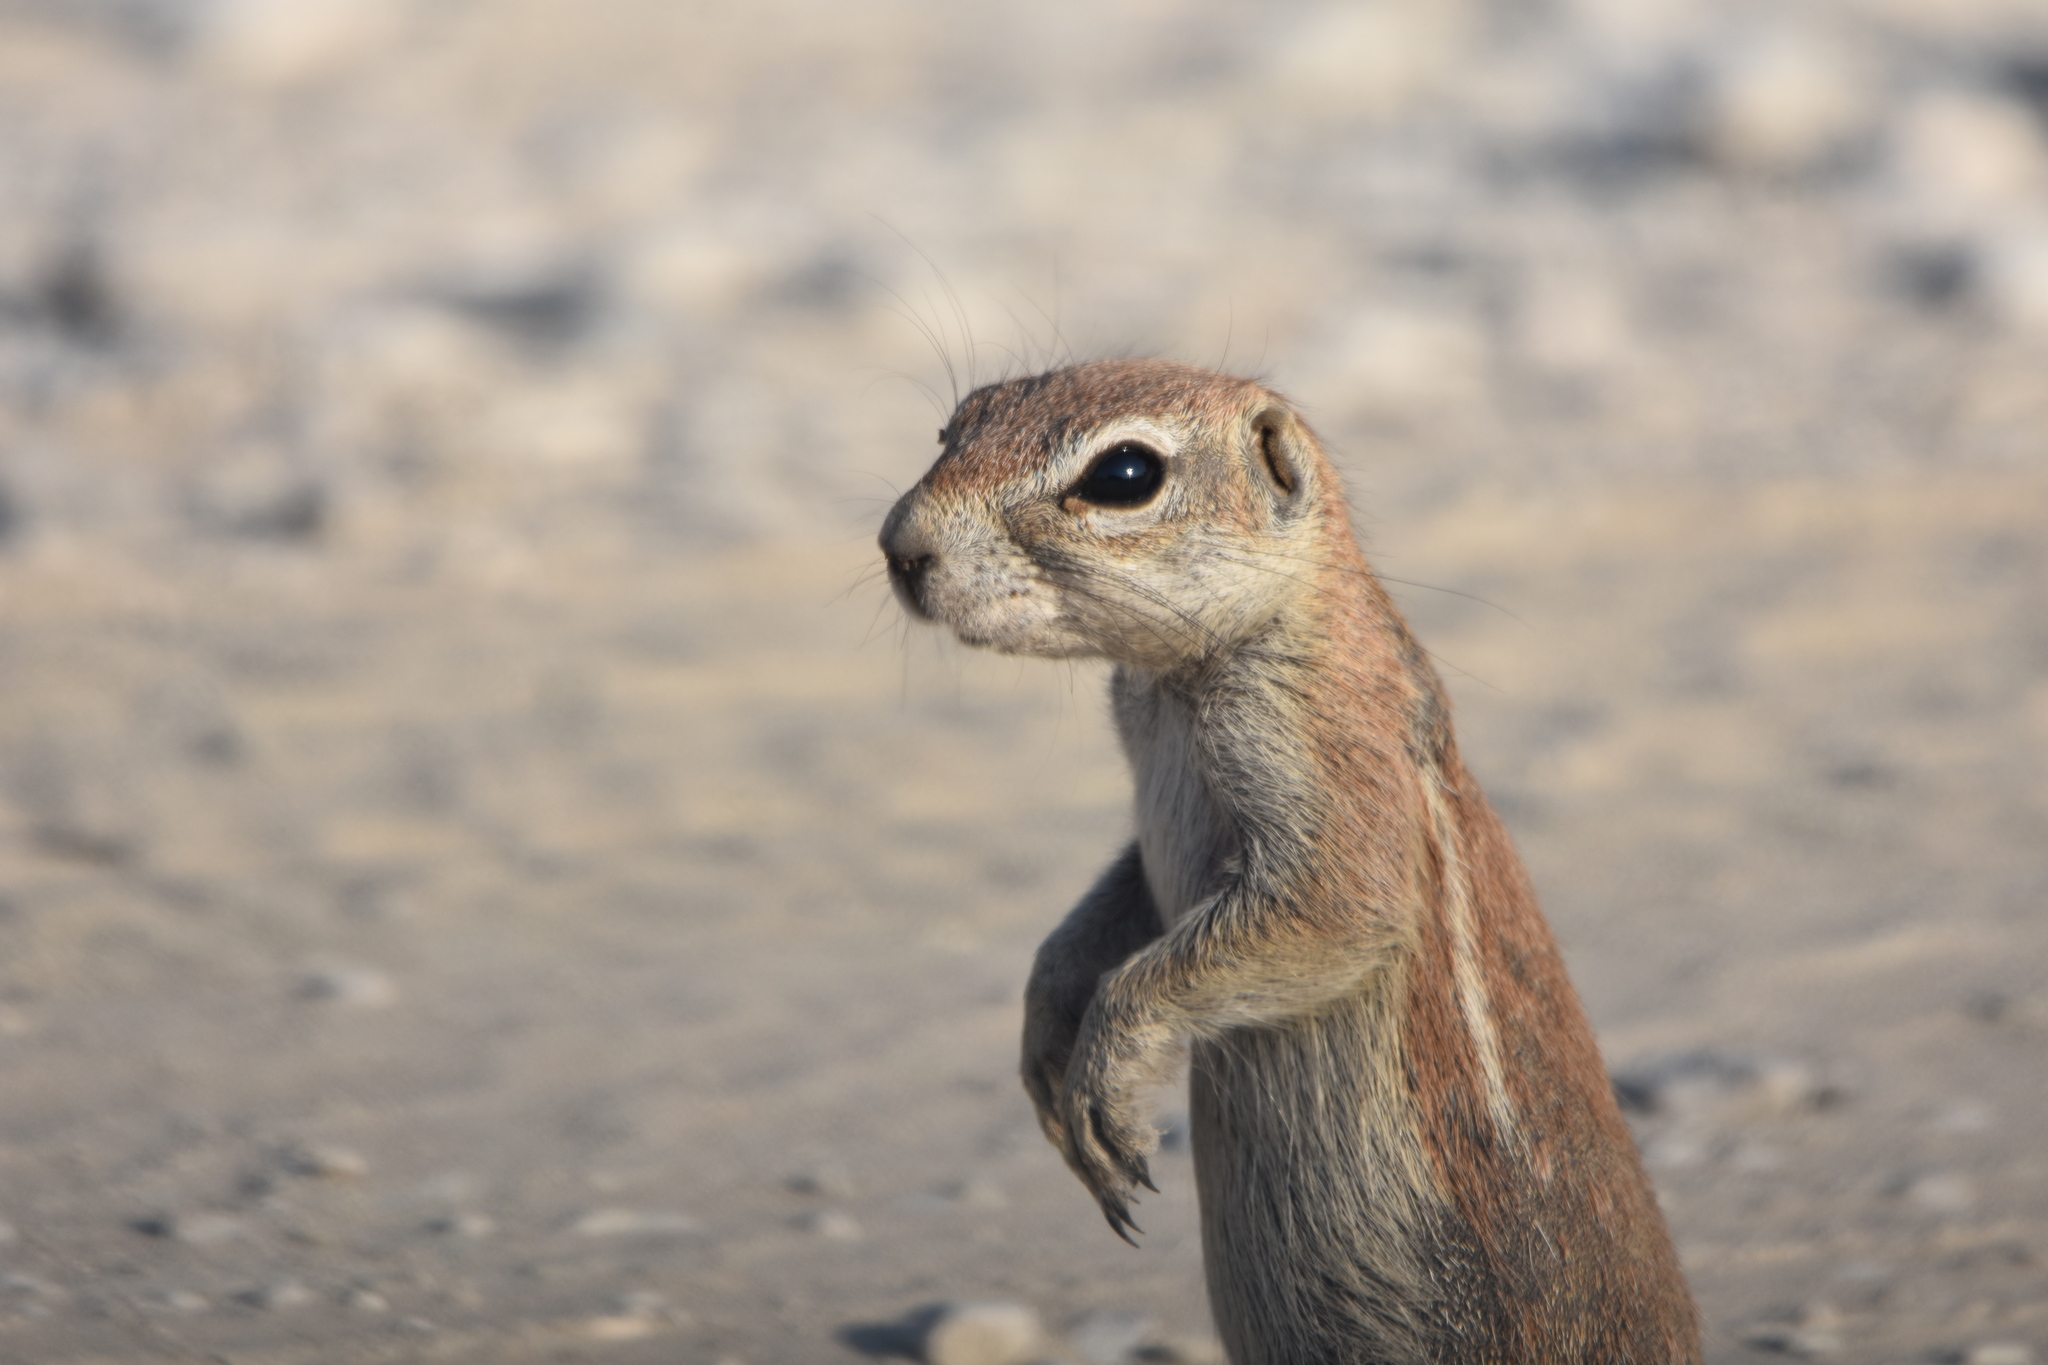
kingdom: Animalia
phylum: Chordata
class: Mammalia
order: Rodentia
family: Sciuridae
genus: Xerus
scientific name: Xerus inauris
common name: South african ground squirrel
